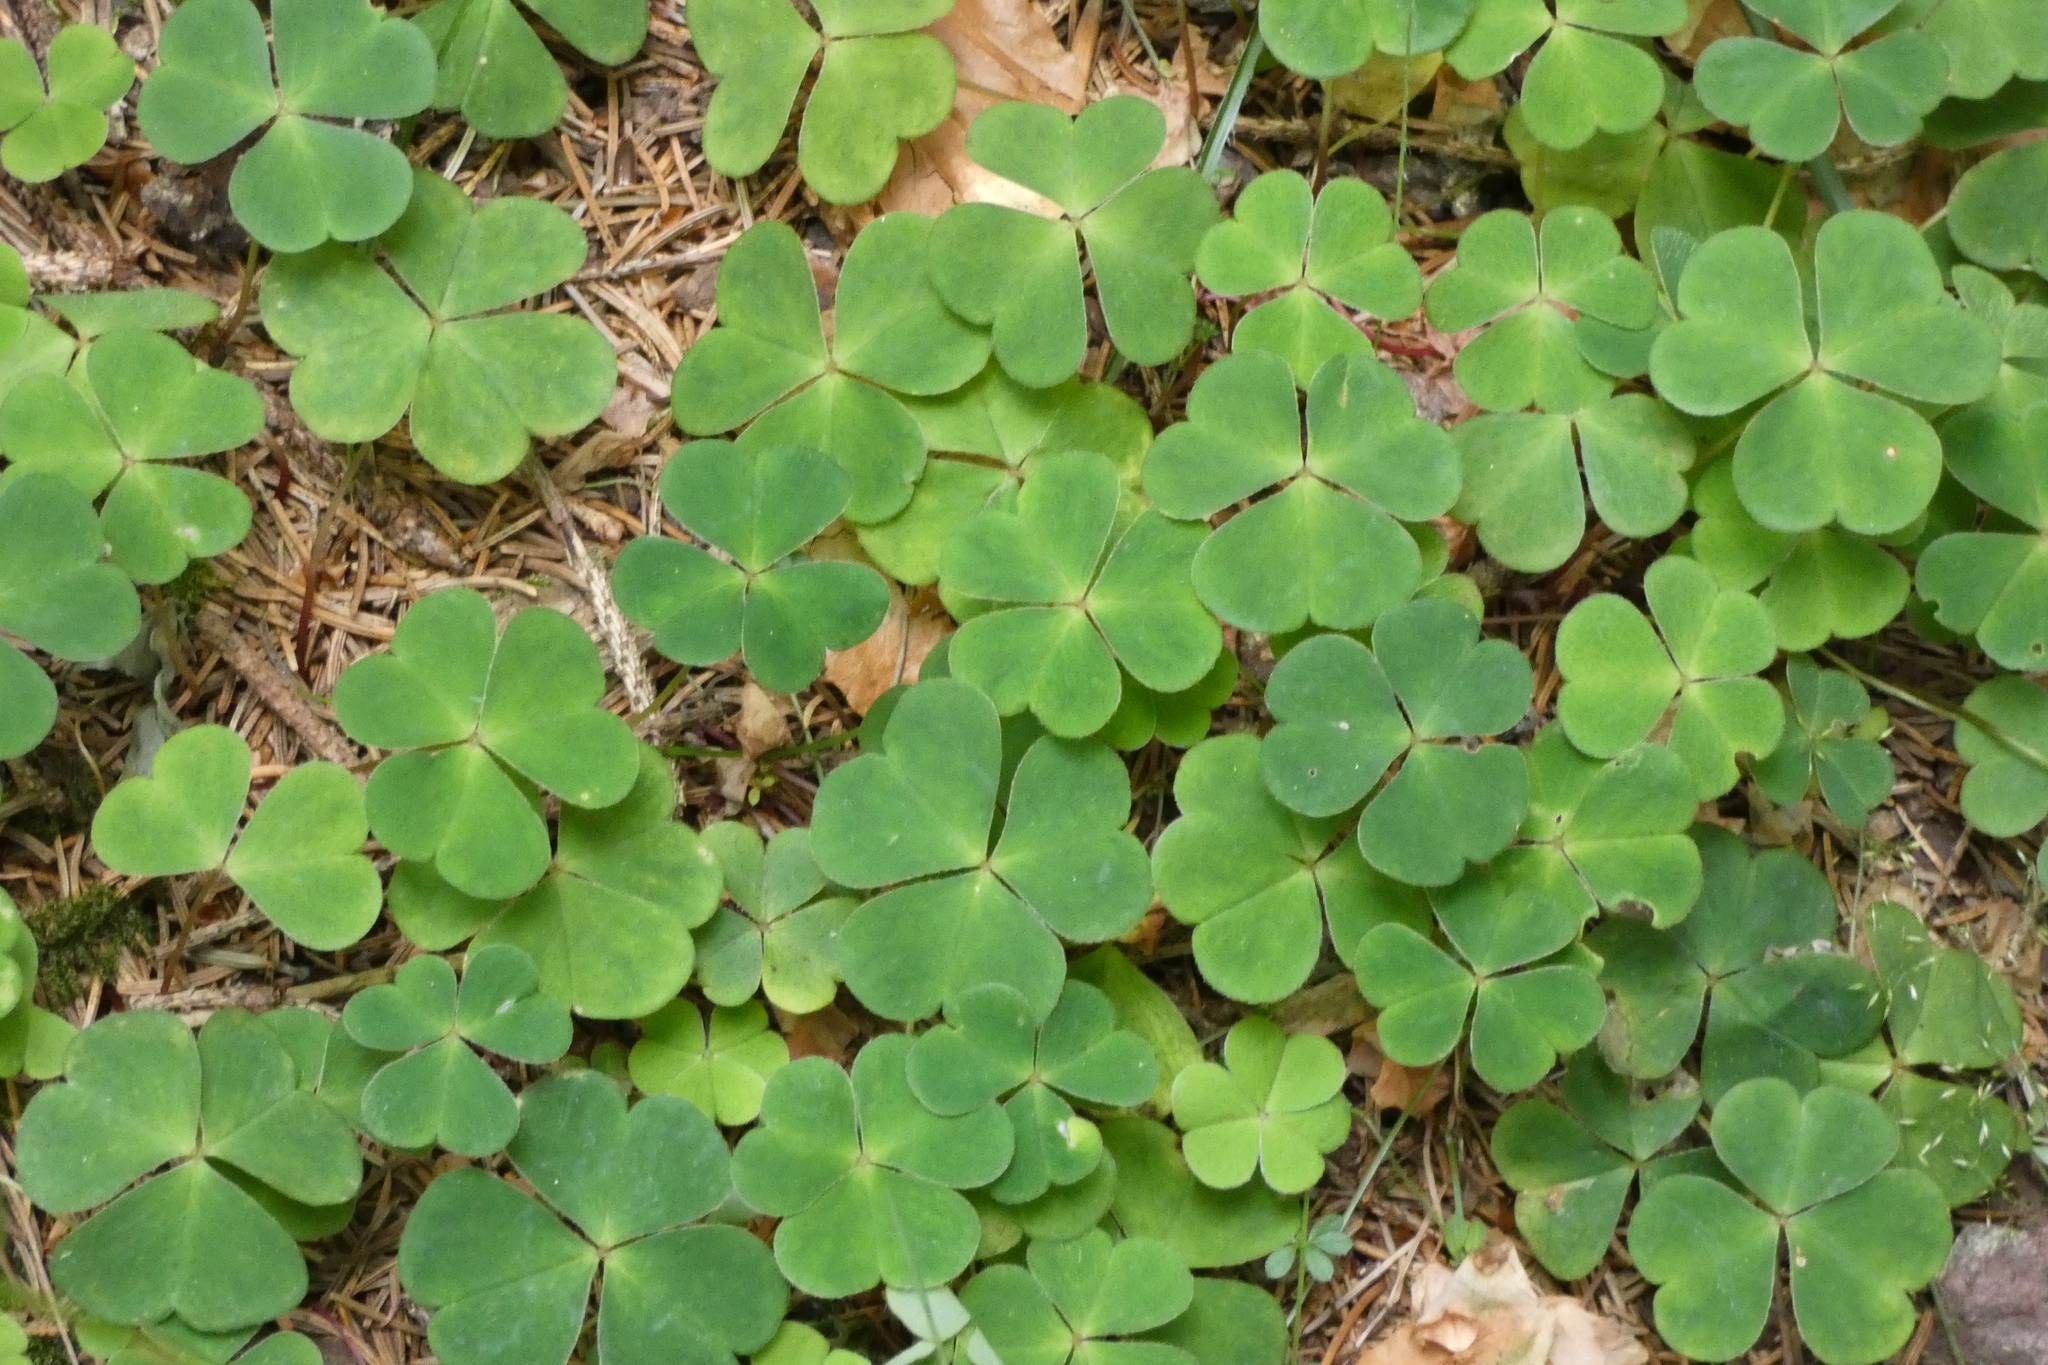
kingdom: Plantae
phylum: Tracheophyta
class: Magnoliopsida
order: Oxalidales
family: Oxalidaceae
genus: Oxalis
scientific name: Oxalis acetosella
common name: Wood-sorrel
